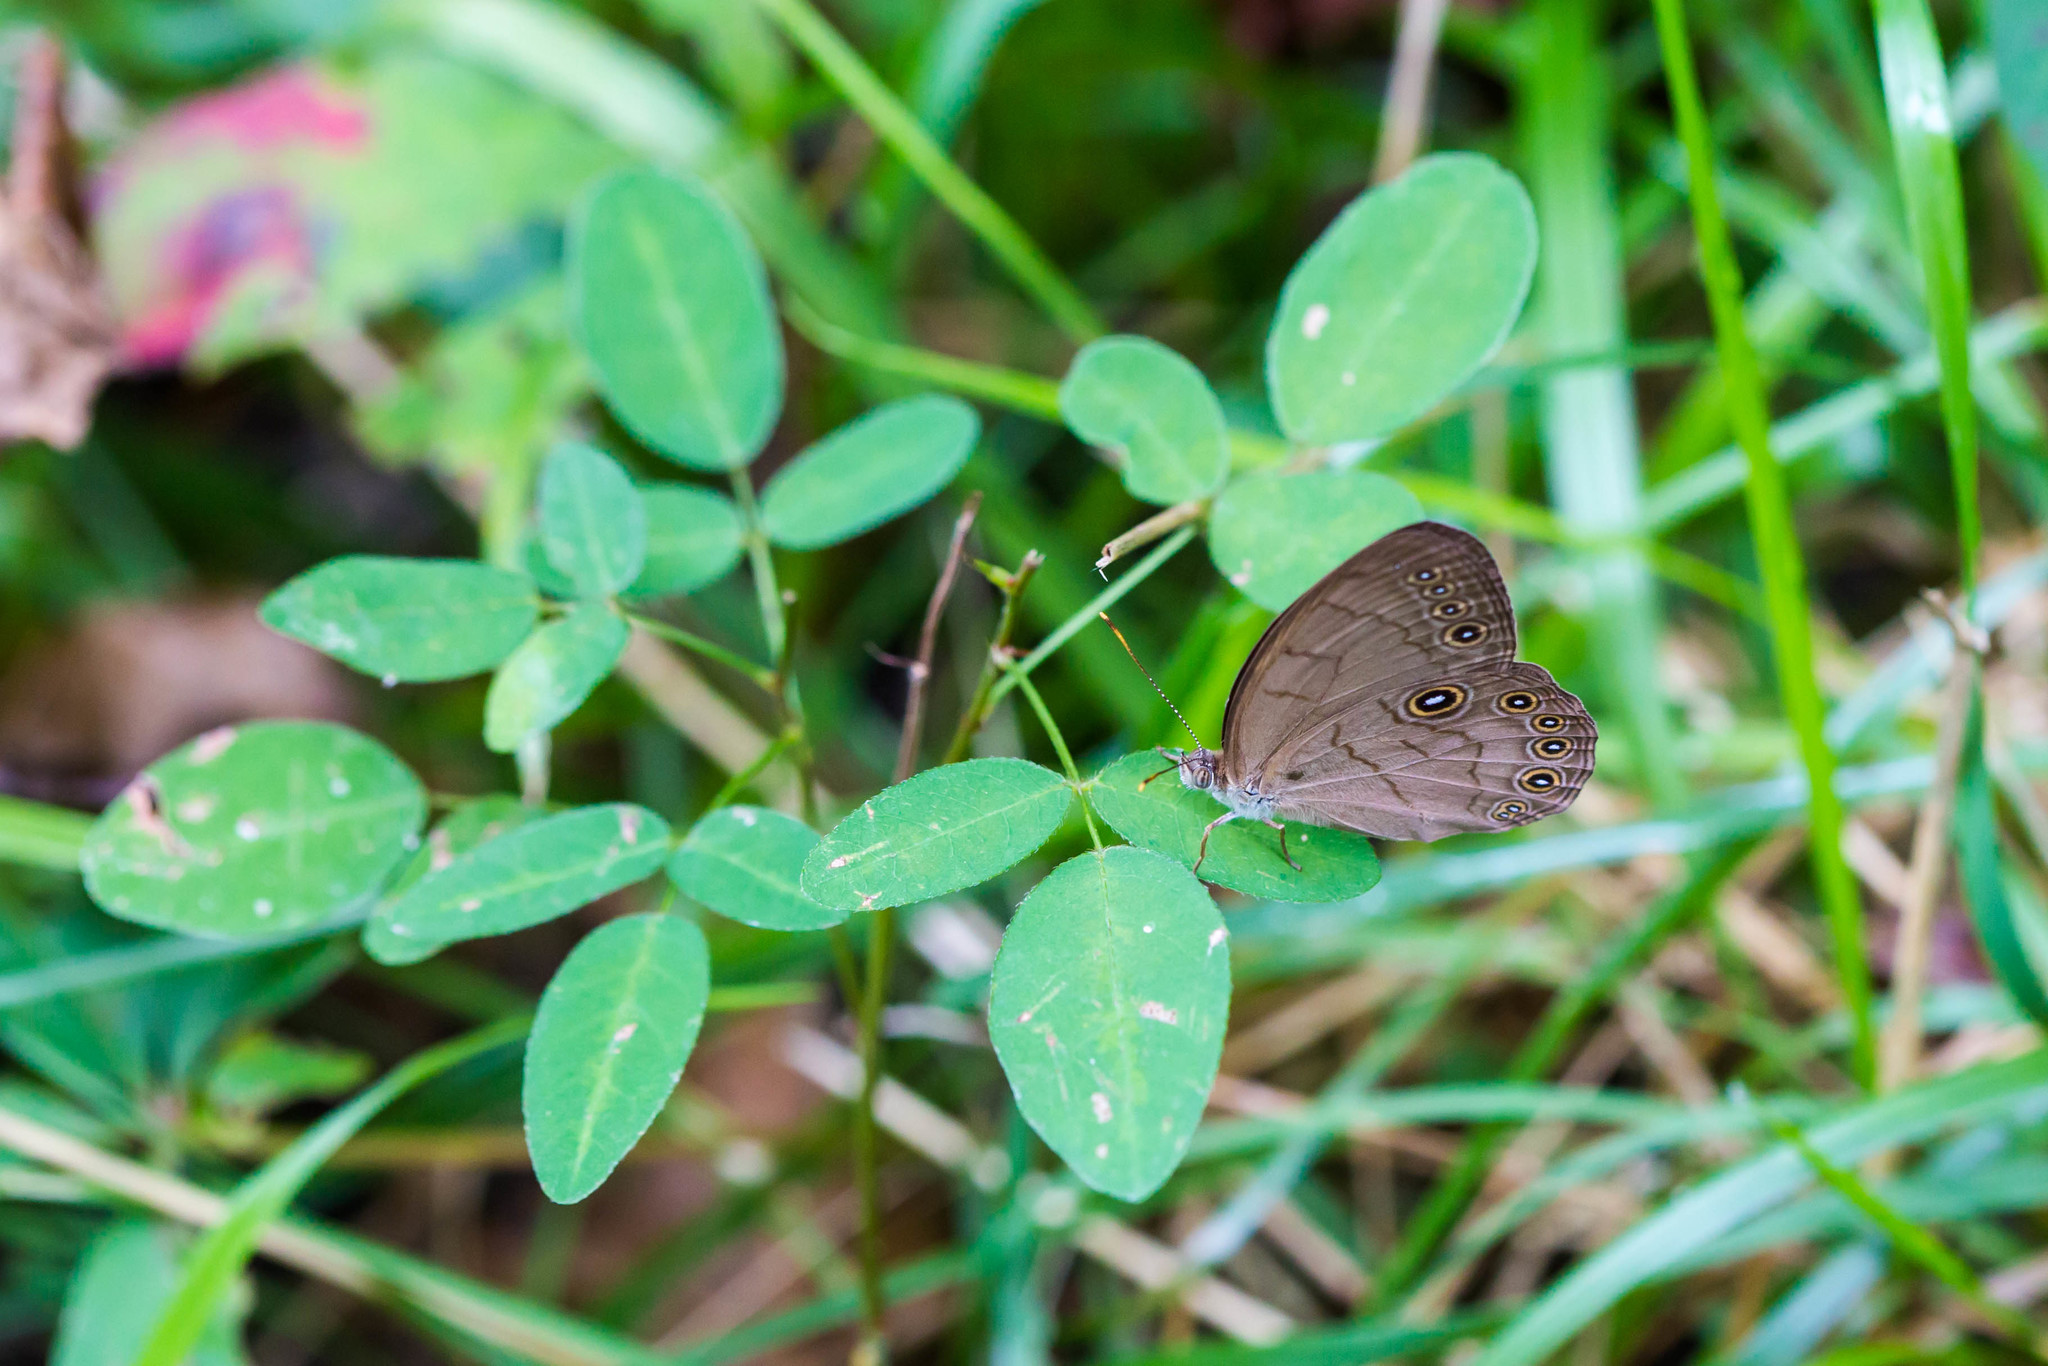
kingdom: Animalia
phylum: Arthropoda
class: Insecta
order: Lepidoptera
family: Nymphalidae
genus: Lethe
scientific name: Lethe eurydice
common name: Eyed brown
